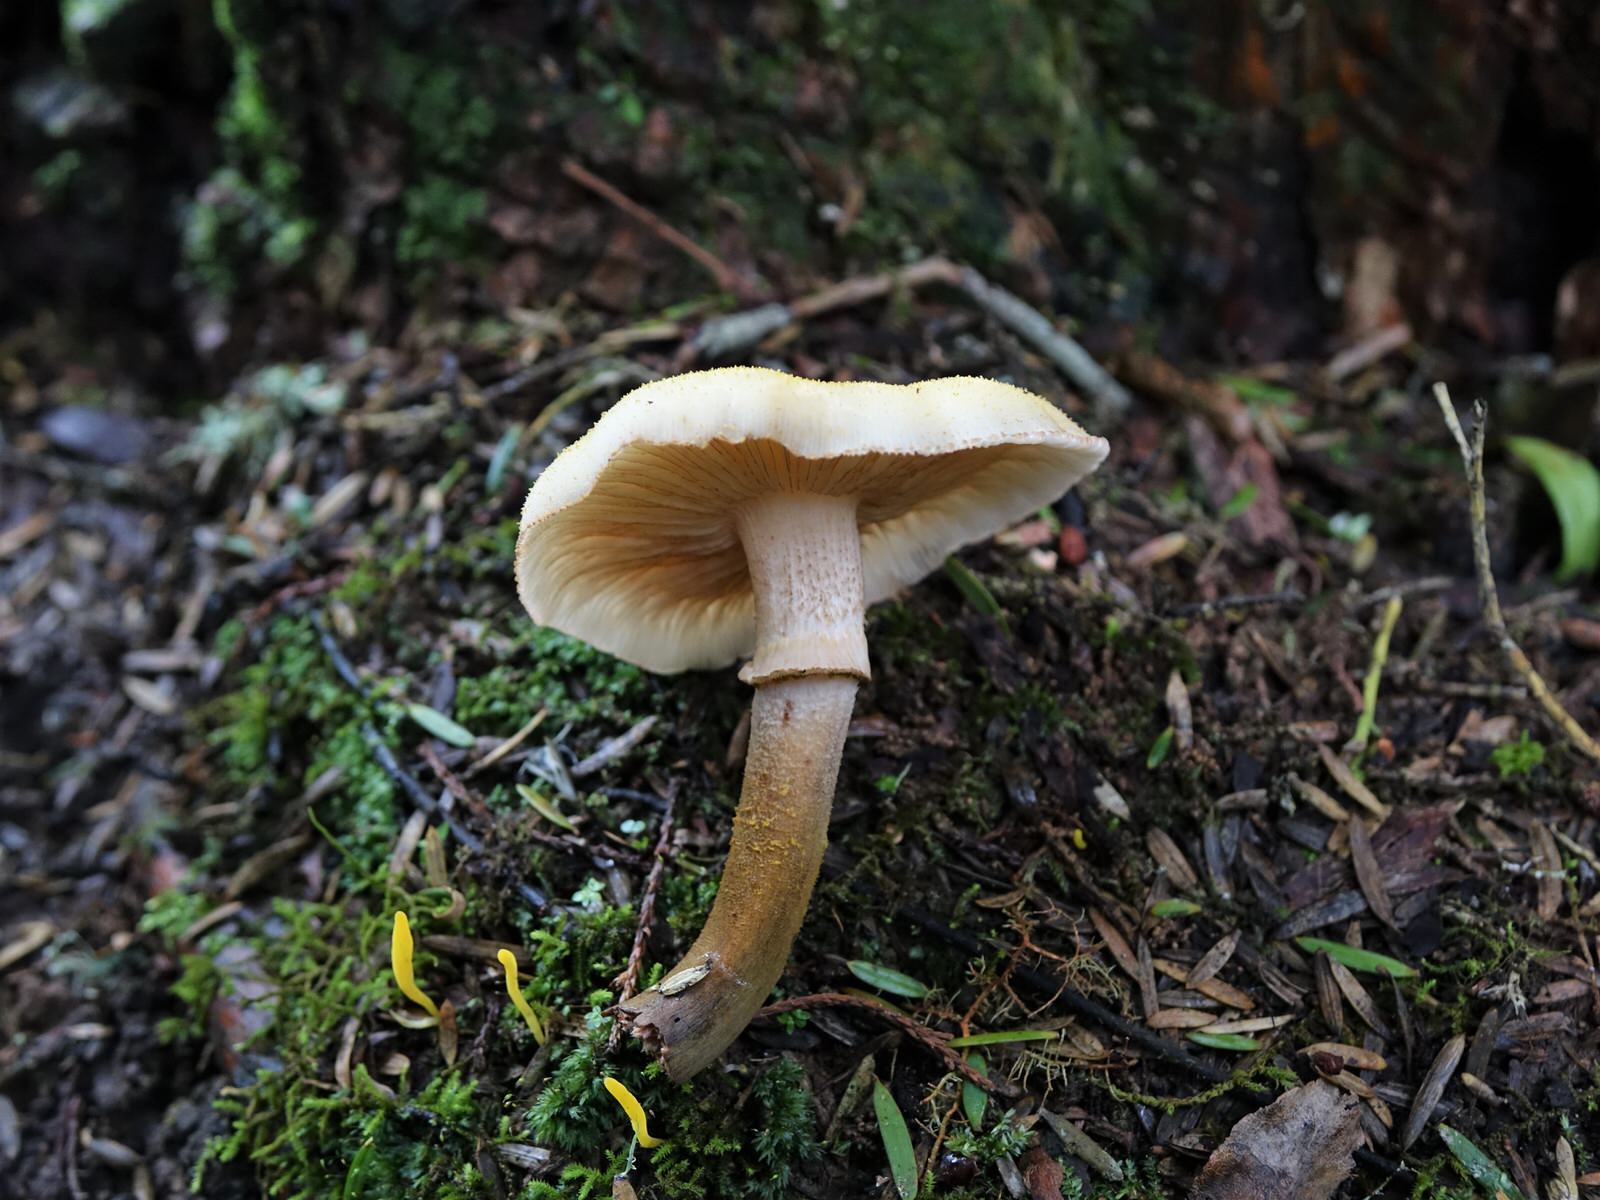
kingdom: Fungi
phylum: Basidiomycota
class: Agaricomycetes
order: Agaricales
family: Physalacriaceae
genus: Armillaria
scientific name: Armillaria limonea
